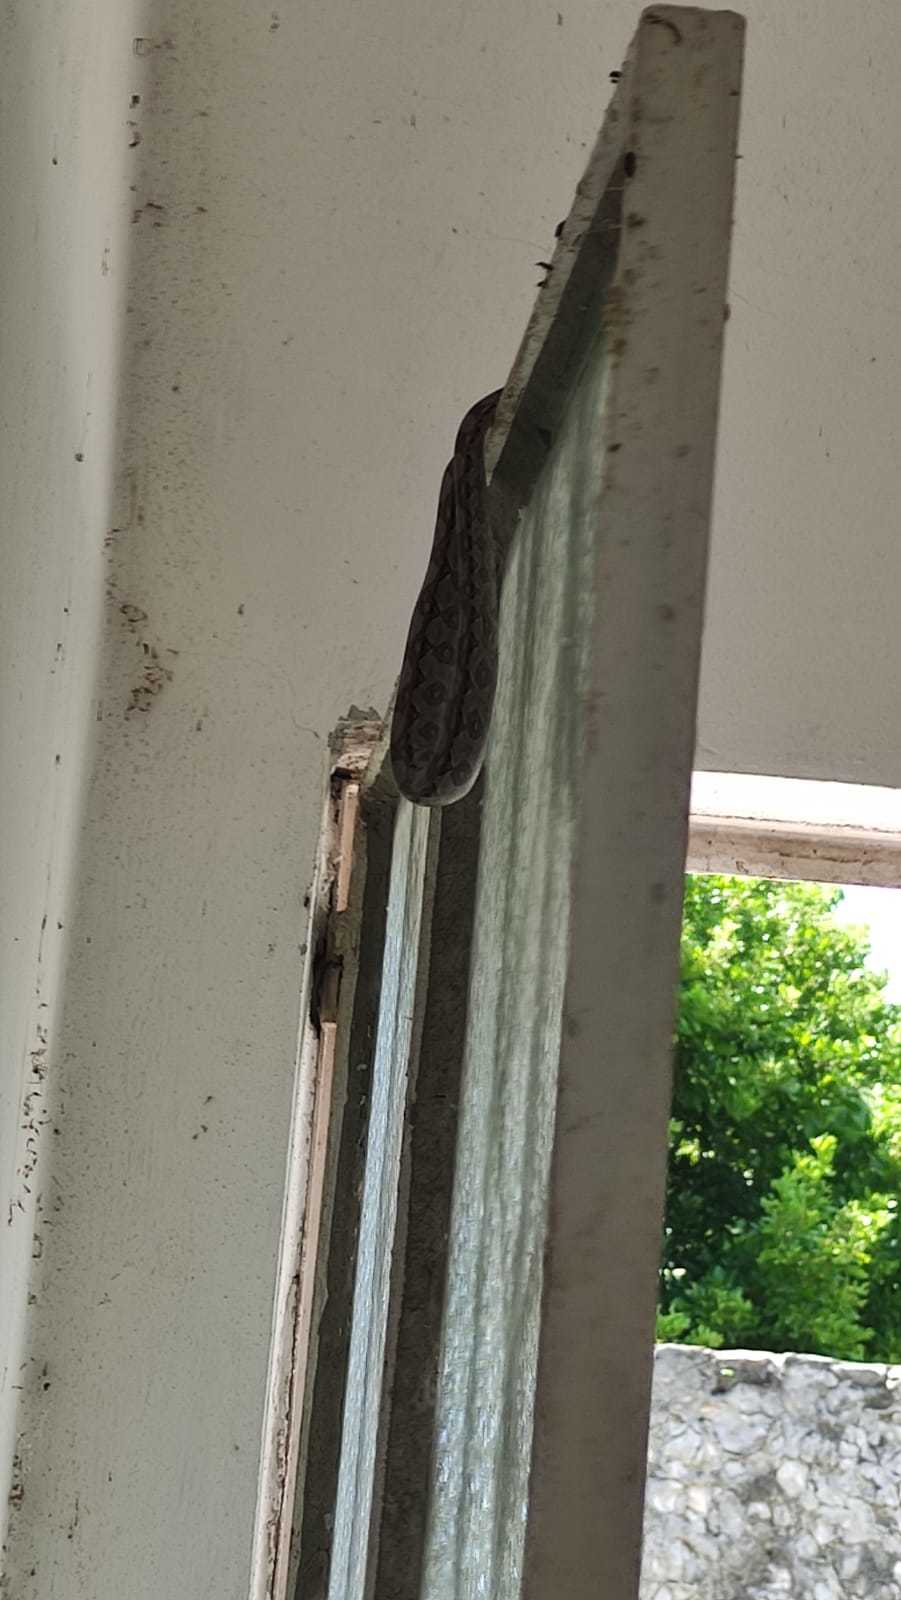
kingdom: Animalia
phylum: Chordata
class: Squamata
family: Boidae
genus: Boa
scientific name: Boa imperator
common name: Central american boa
